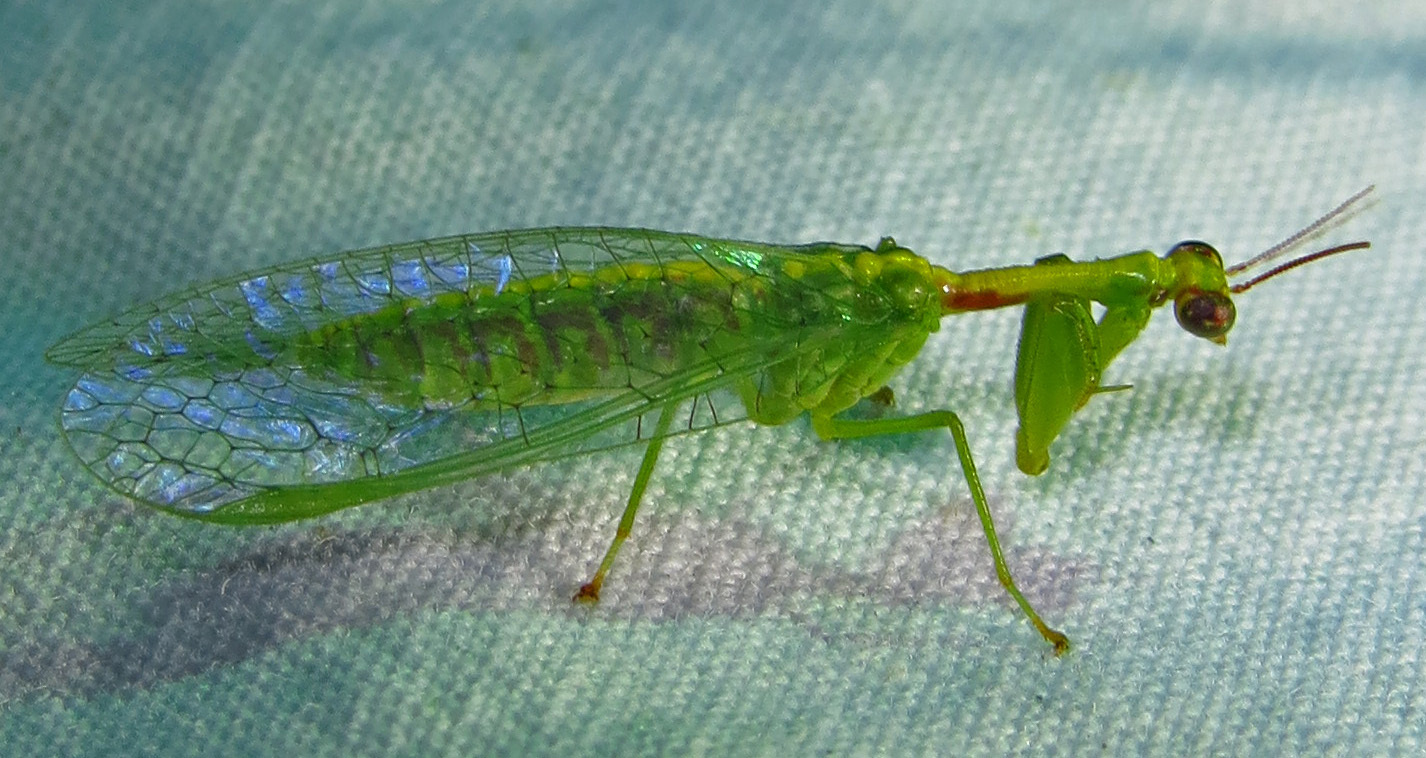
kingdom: Animalia
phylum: Arthropoda
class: Insecta
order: Neuroptera
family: Mantispidae
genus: Zeugomantispa
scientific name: Zeugomantispa minuta
